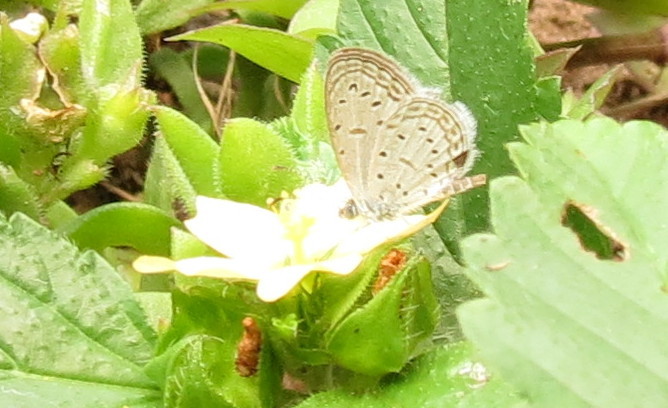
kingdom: Animalia
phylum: Arthropoda
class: Insecta
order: Lepidoptera
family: Lycaenidae
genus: Zizula
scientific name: Zizula hylax
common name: Gaika blue
